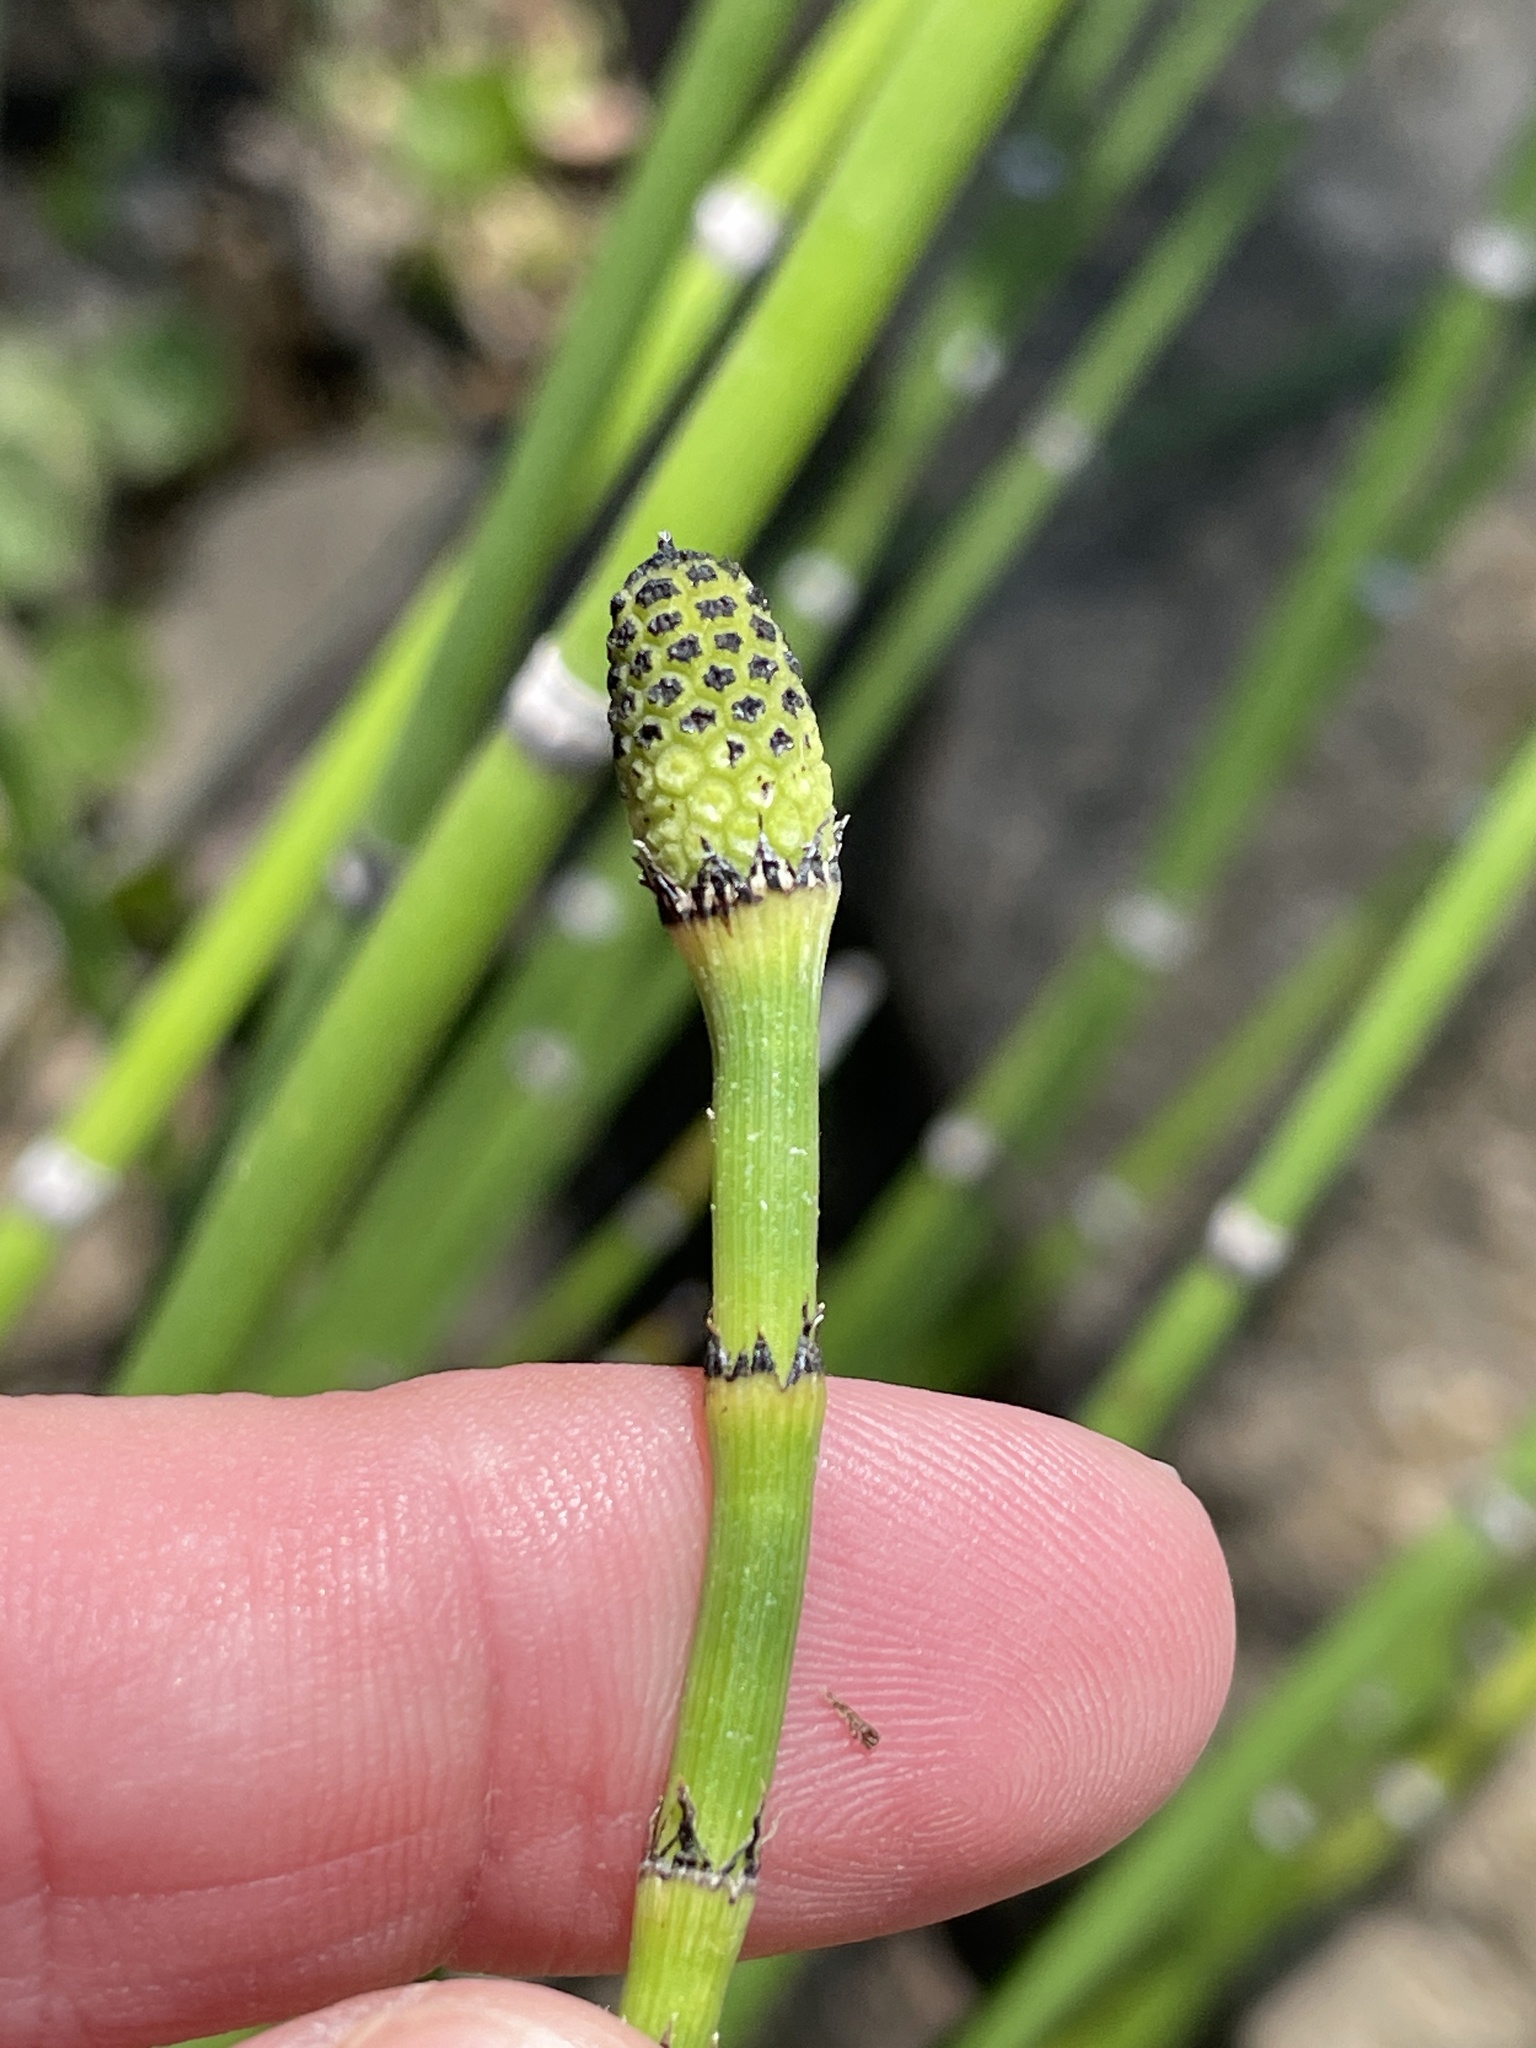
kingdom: Plantae
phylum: Tracheophyta
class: Polypodiopsida
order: Equisetales
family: Equisetaceae
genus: Equisetum
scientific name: Equisetum hyemale
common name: Rough horsetail
